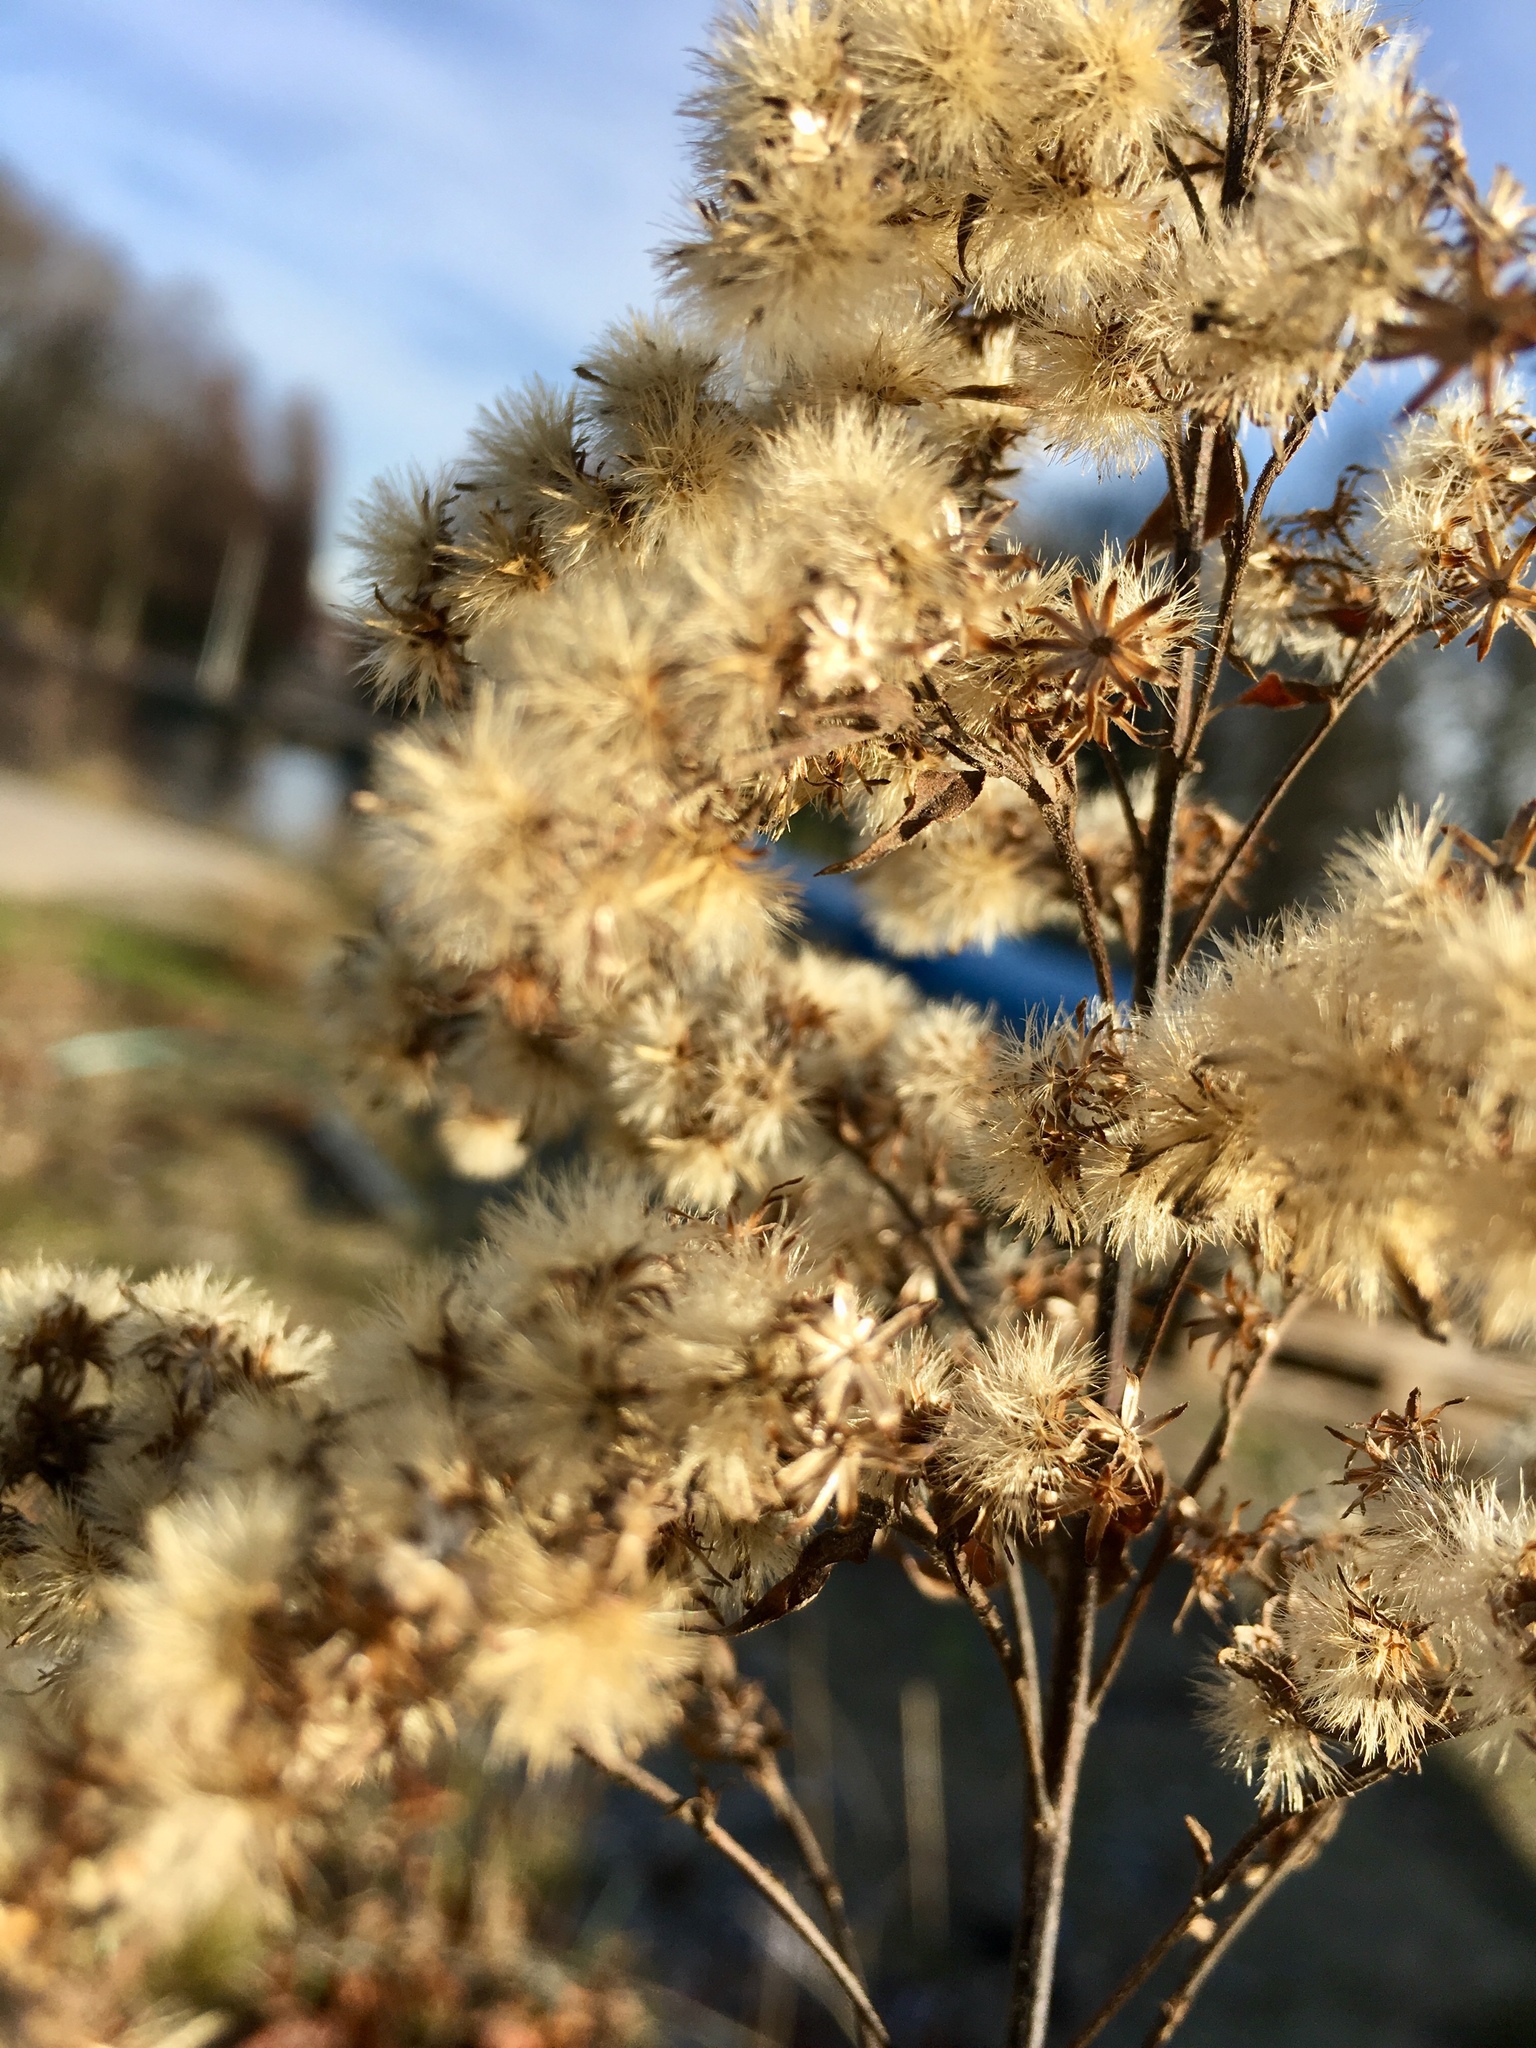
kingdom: Plantae
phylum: Tracheophyta
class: Magnoliopsida
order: Asterales
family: Asteraceae
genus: Solidago
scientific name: Solidago
